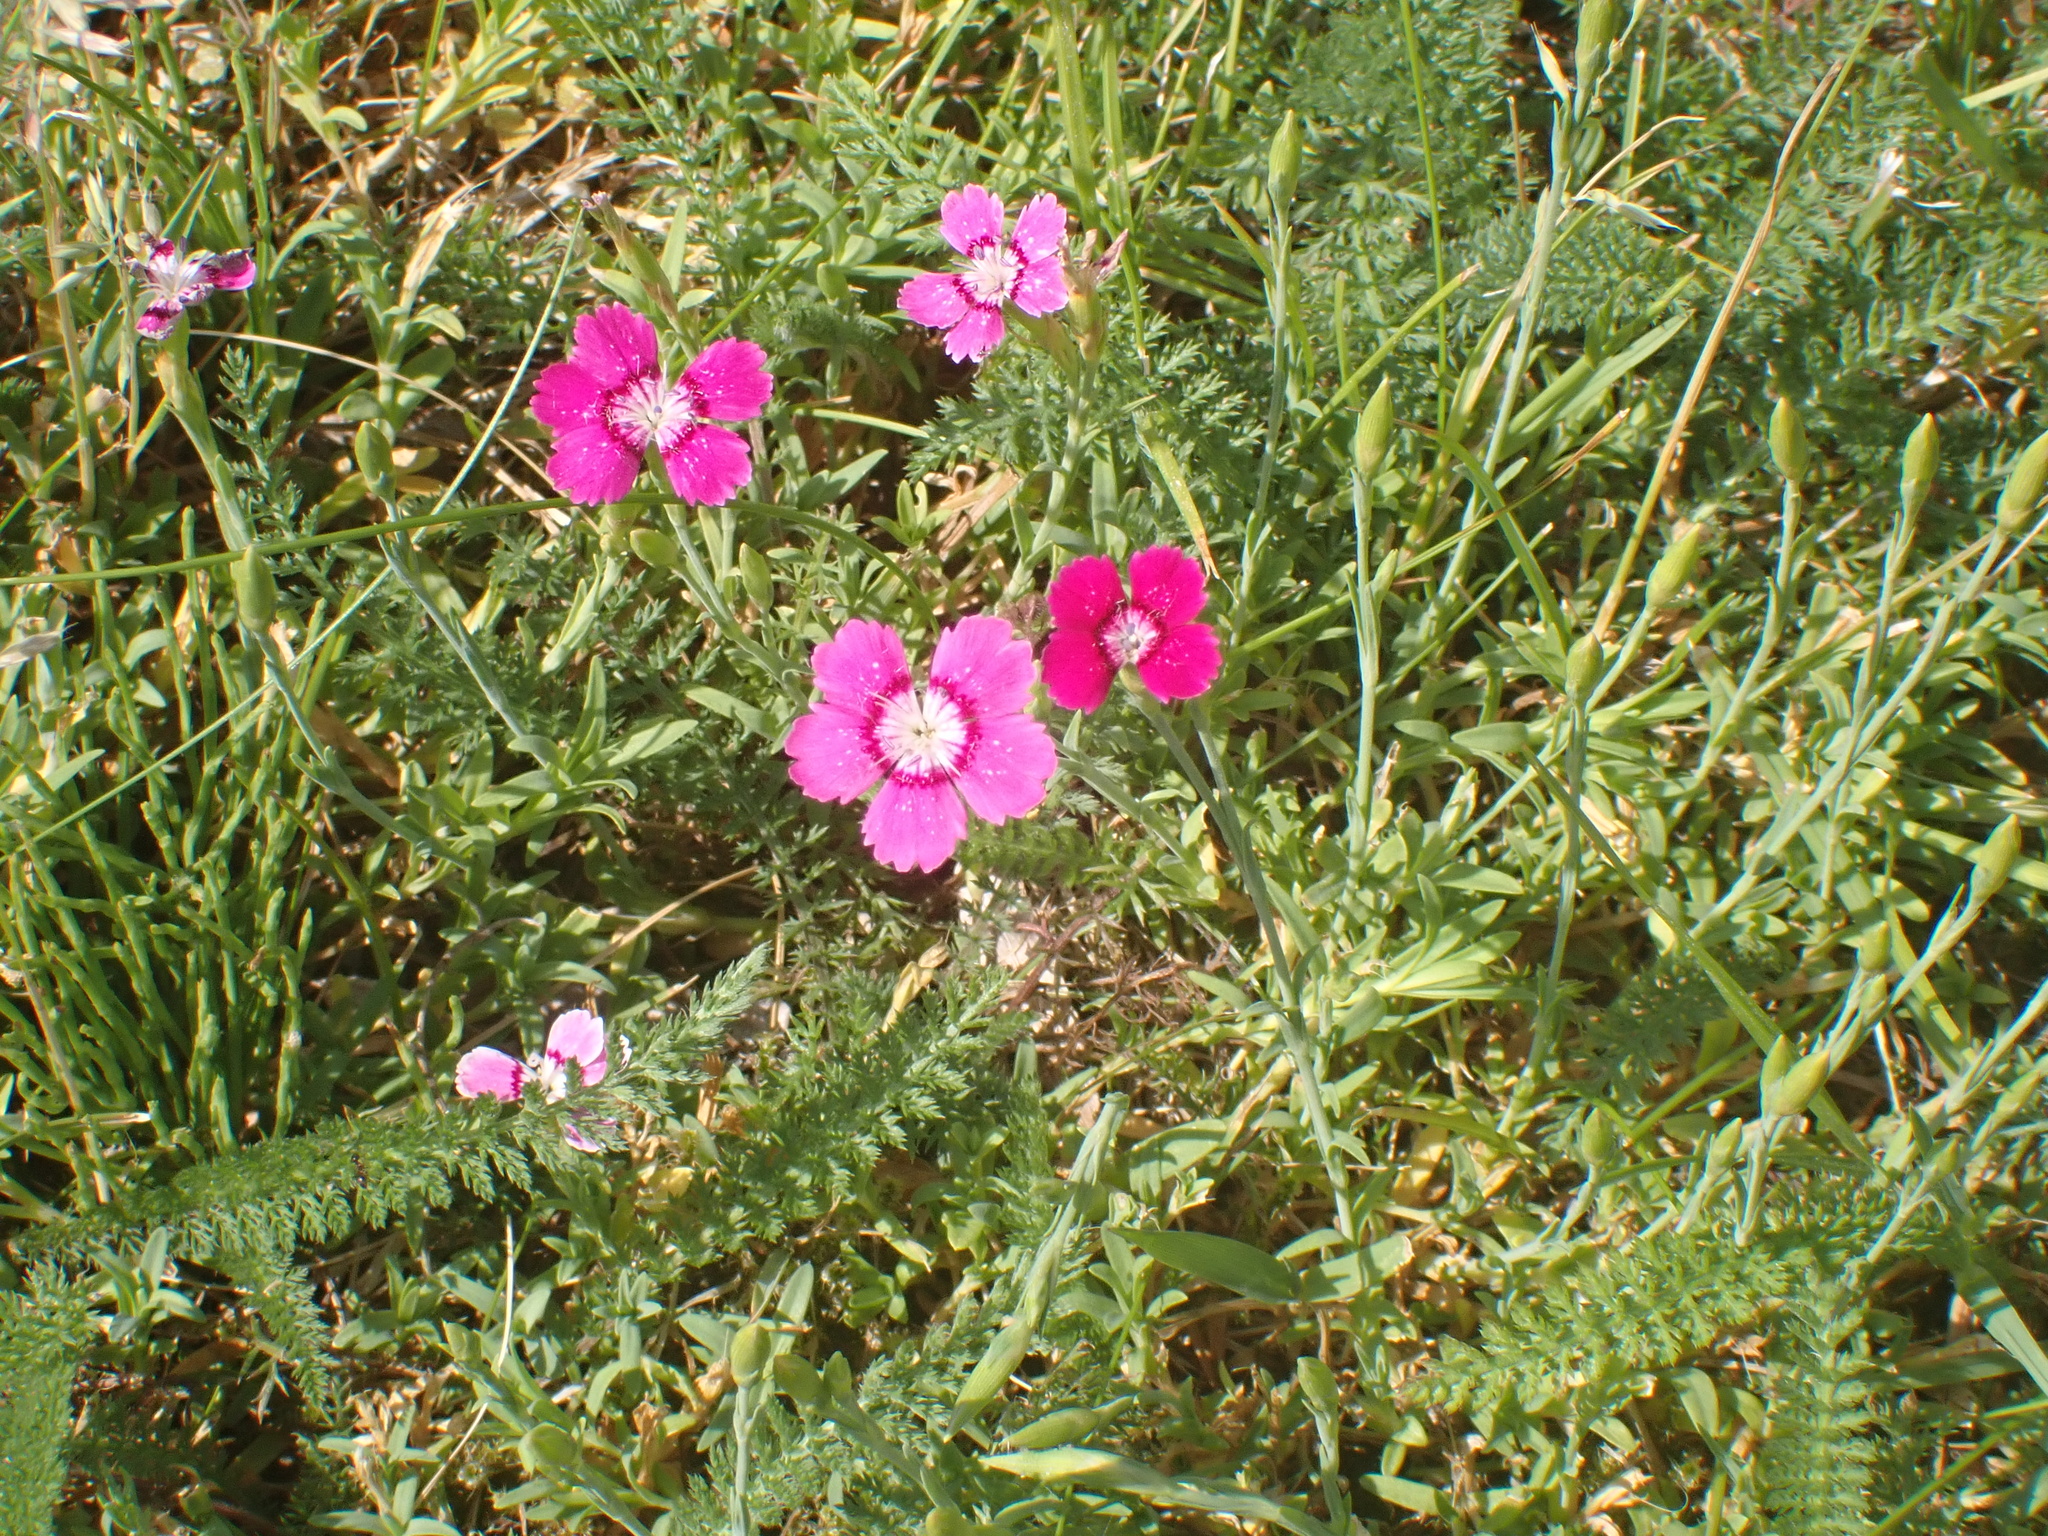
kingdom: Plantae
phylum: Tracheophyta
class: Magnoliopsida
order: Caryophyllales
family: Caryophyllaceae
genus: Dianthus
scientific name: Dianthus deltoides
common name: Maiden pink
